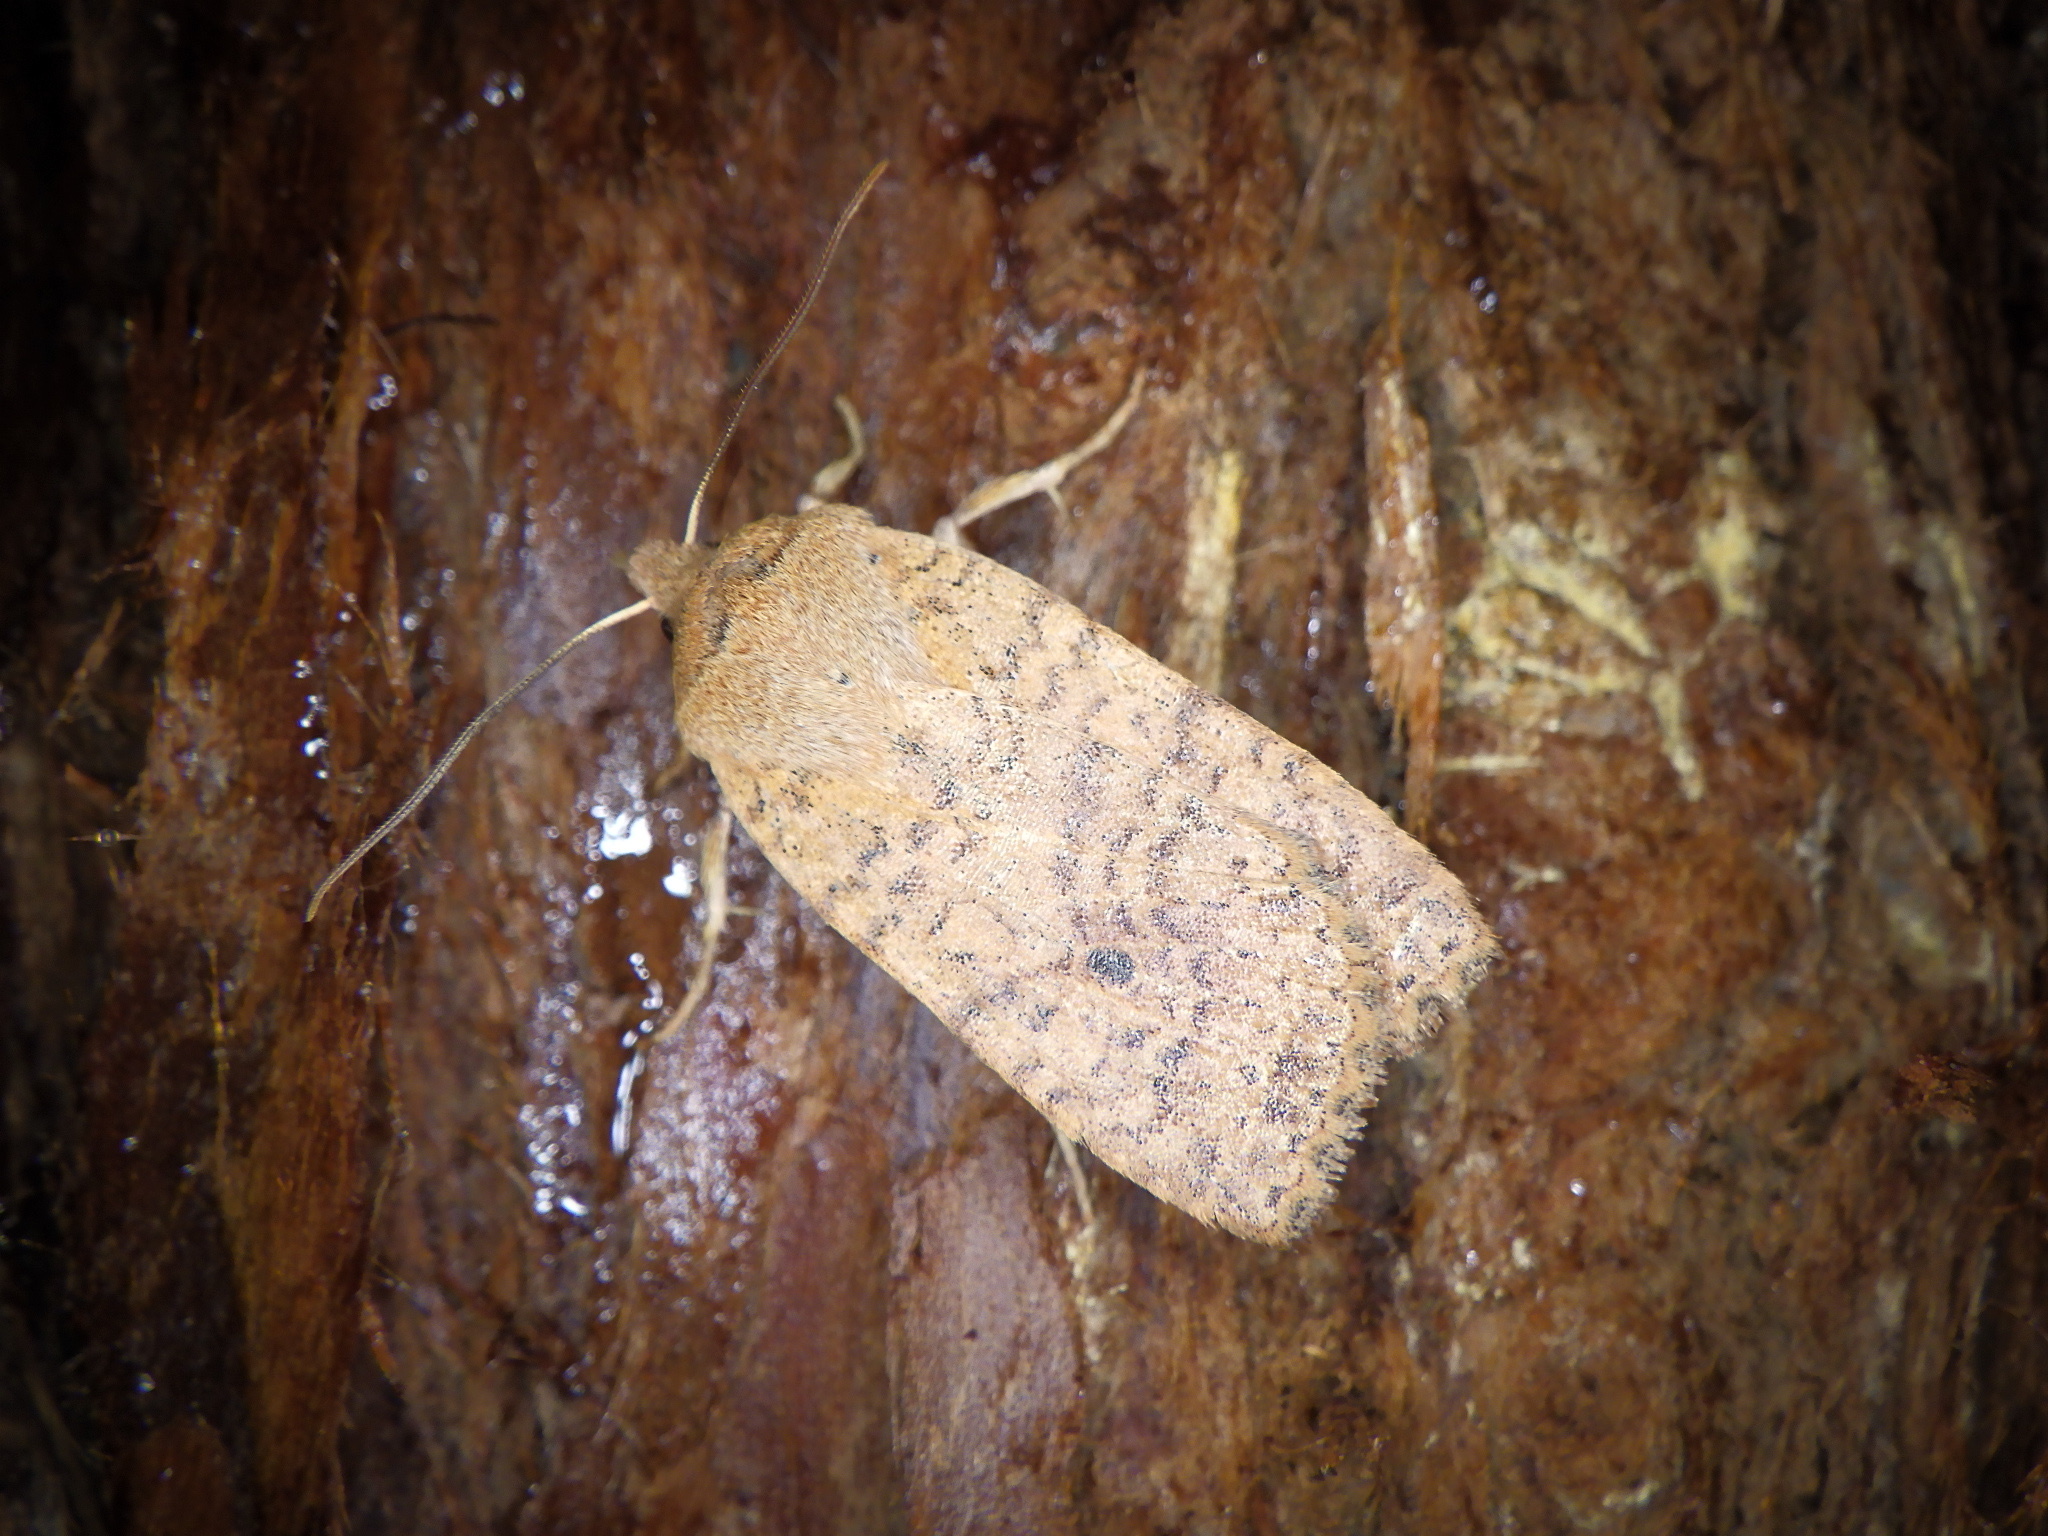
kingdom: Animalia
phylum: Arthropoda
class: Insecta
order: Lepidoptera
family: Noctuidae
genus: Conistra
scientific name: Conistra albipuncta
